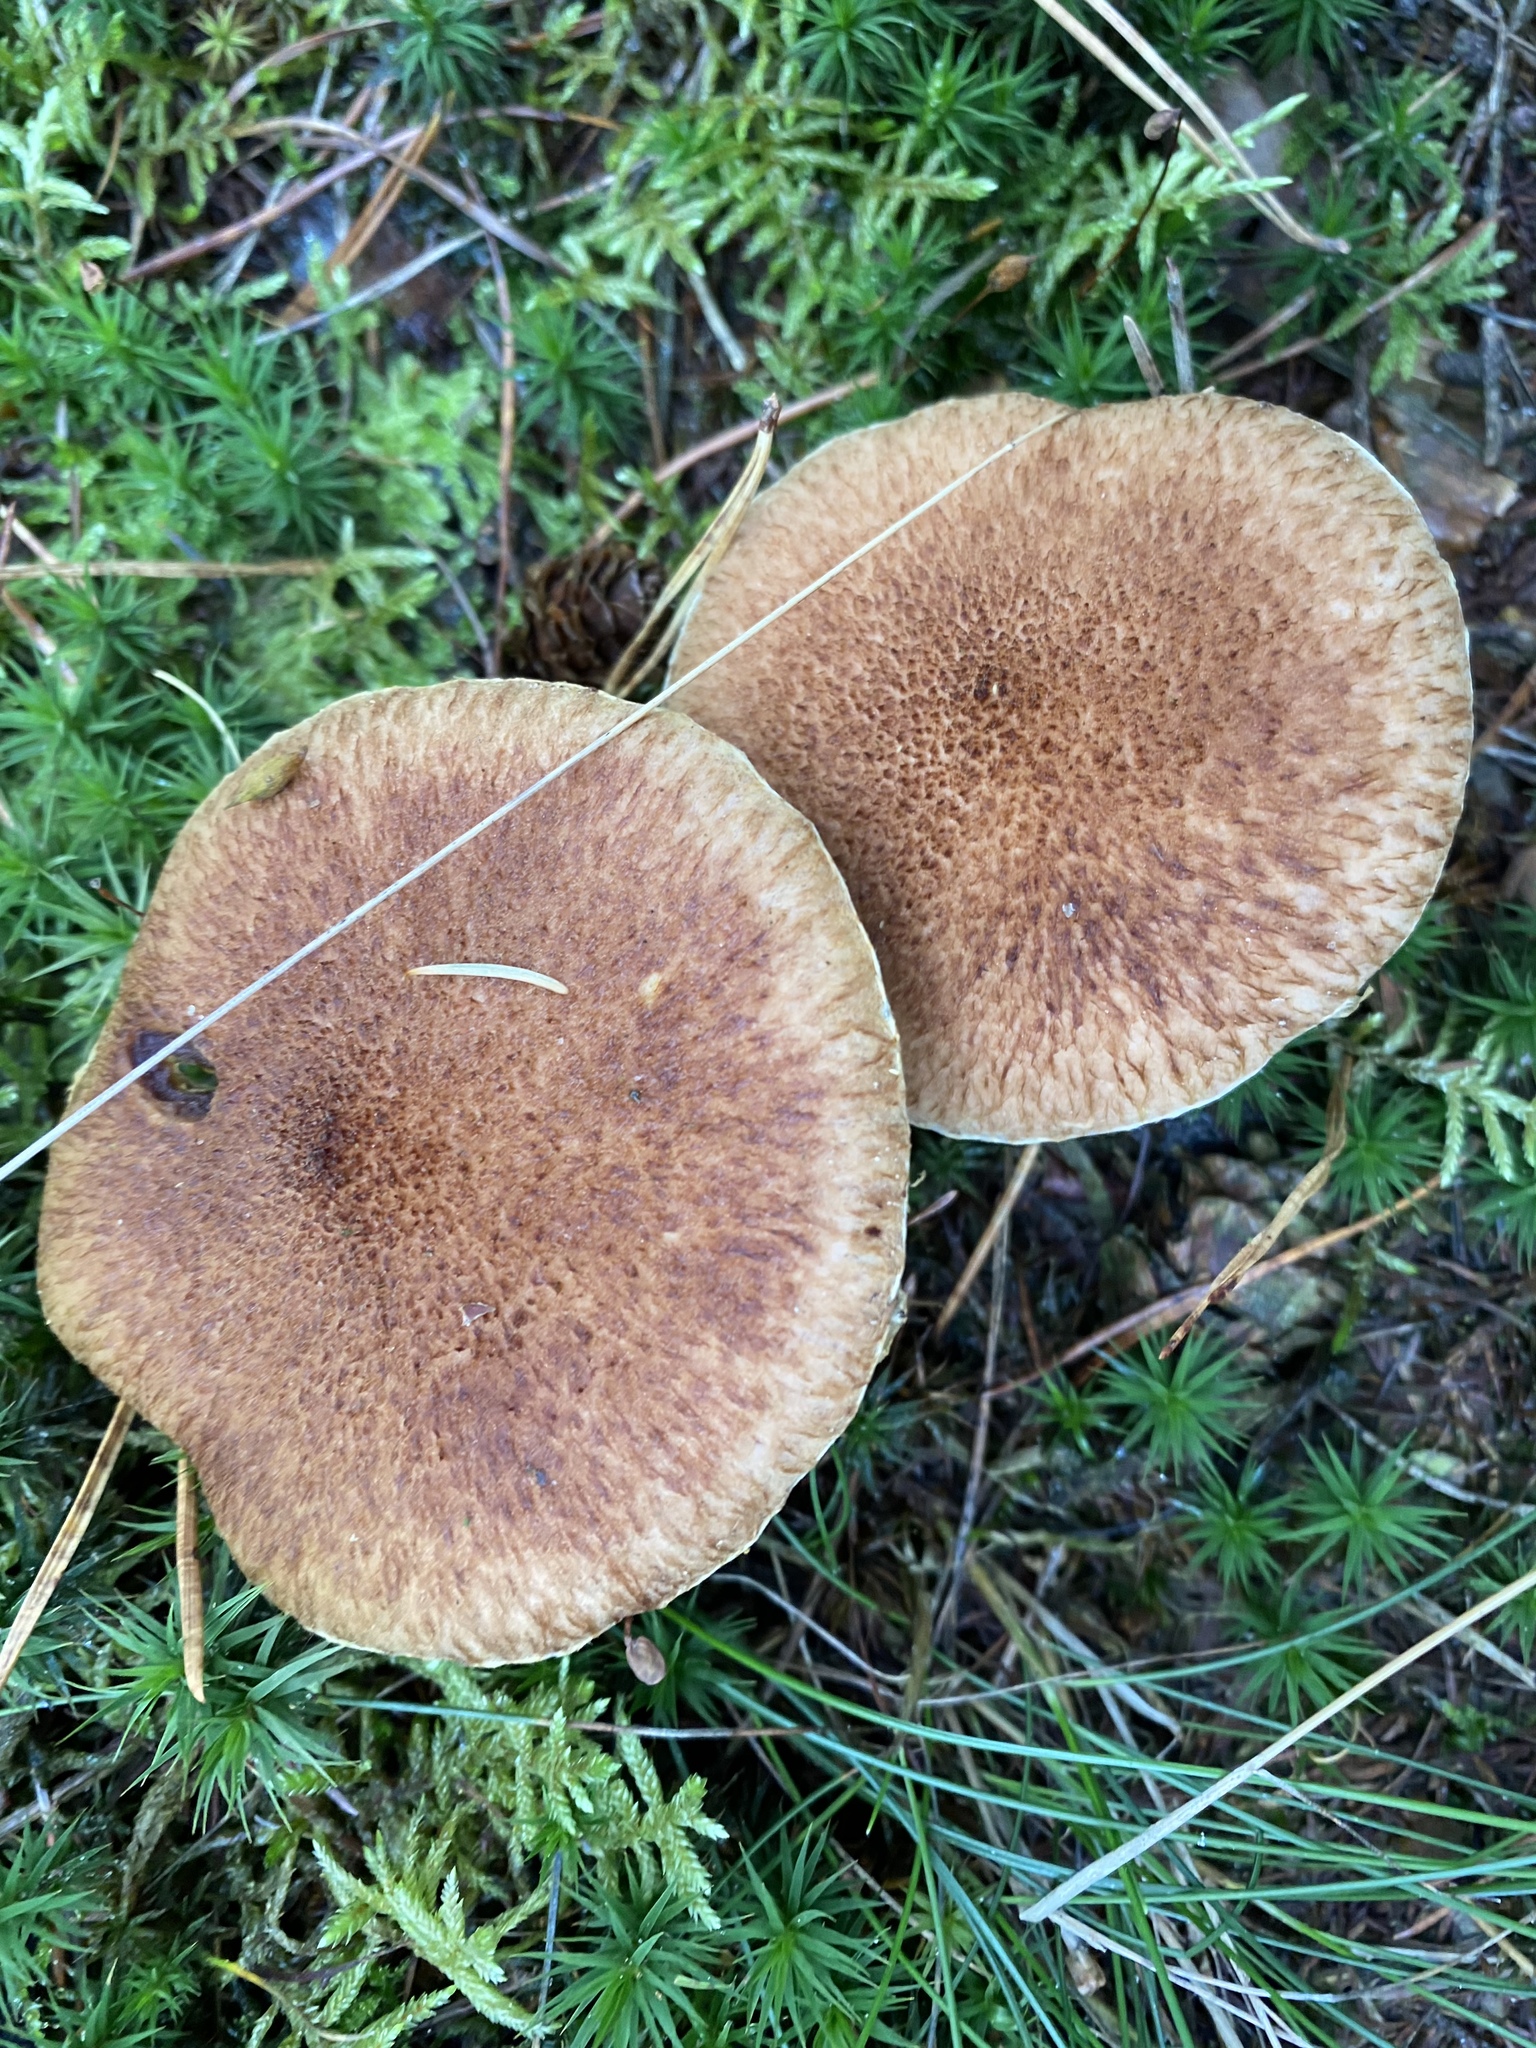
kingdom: Fungi
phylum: Basidiomycota
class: Agaricomycetes
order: Boletales
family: Suillaceae
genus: Suillus
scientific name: Suillus cavipes
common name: Hollow bolete
